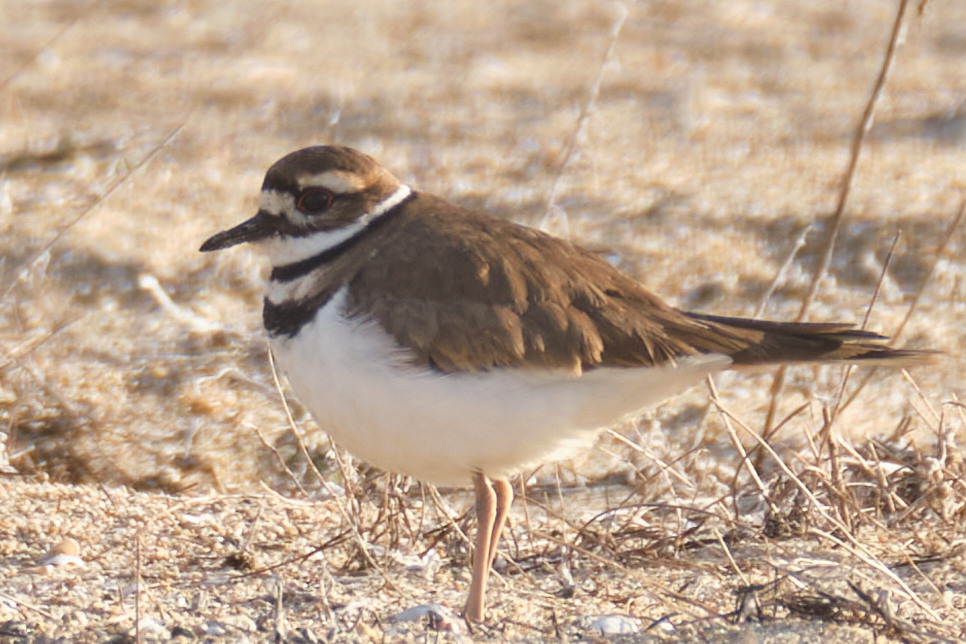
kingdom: Animalia
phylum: Chordata
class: Aves
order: Charadriiformes
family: Charadriidae
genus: Charadrius
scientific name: Charadrius vociferus
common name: Killdeer
